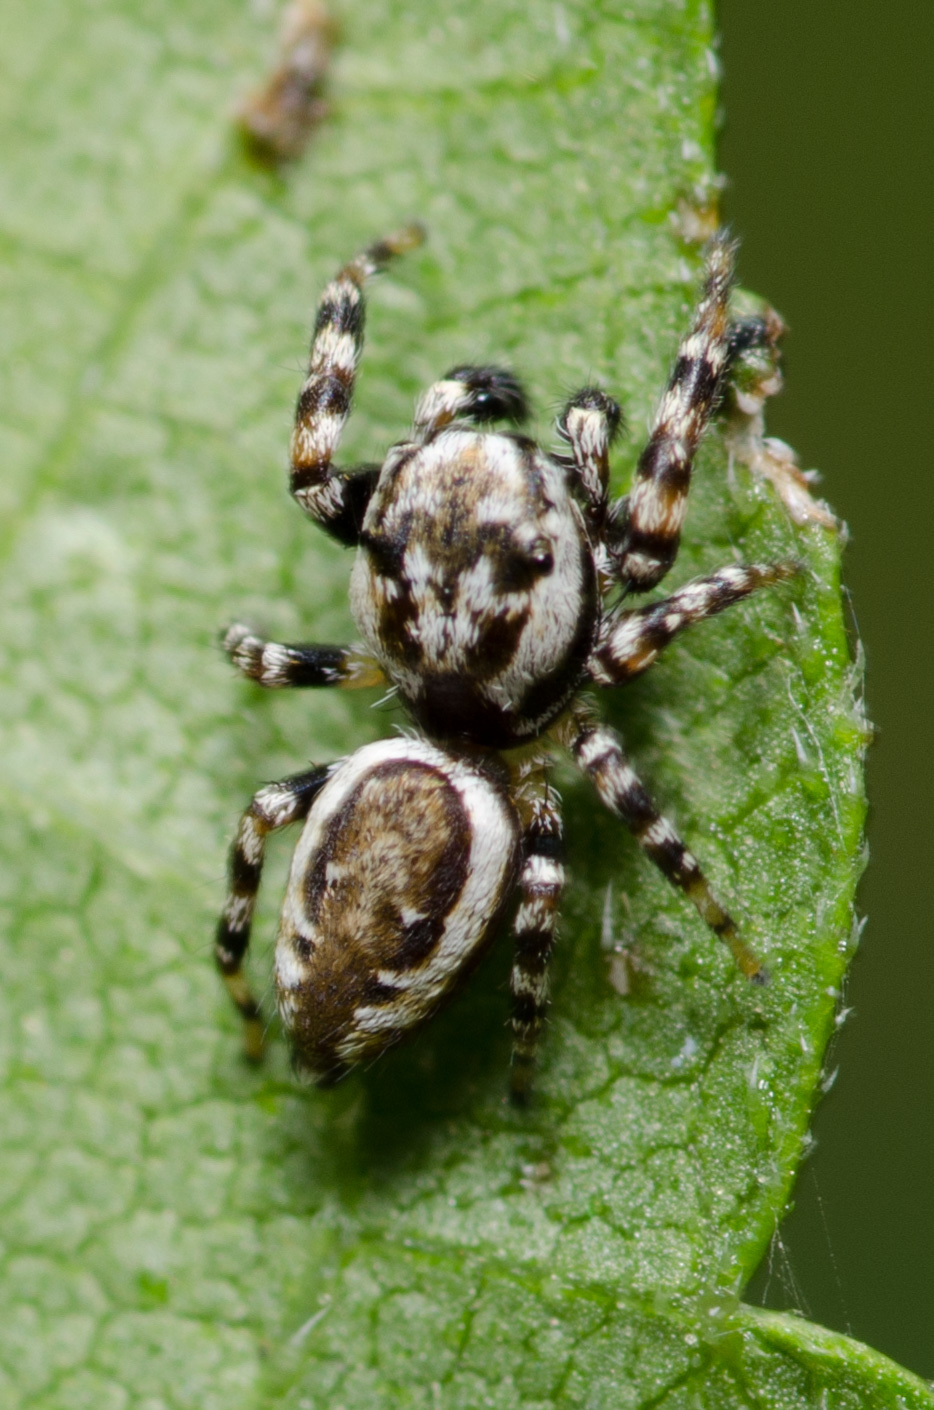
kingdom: Animalia
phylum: Arthropoda
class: Arachnida
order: Araneae
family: Salticidae
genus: Pelegrina
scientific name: Pelegrina galathea
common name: Jumping spiders
